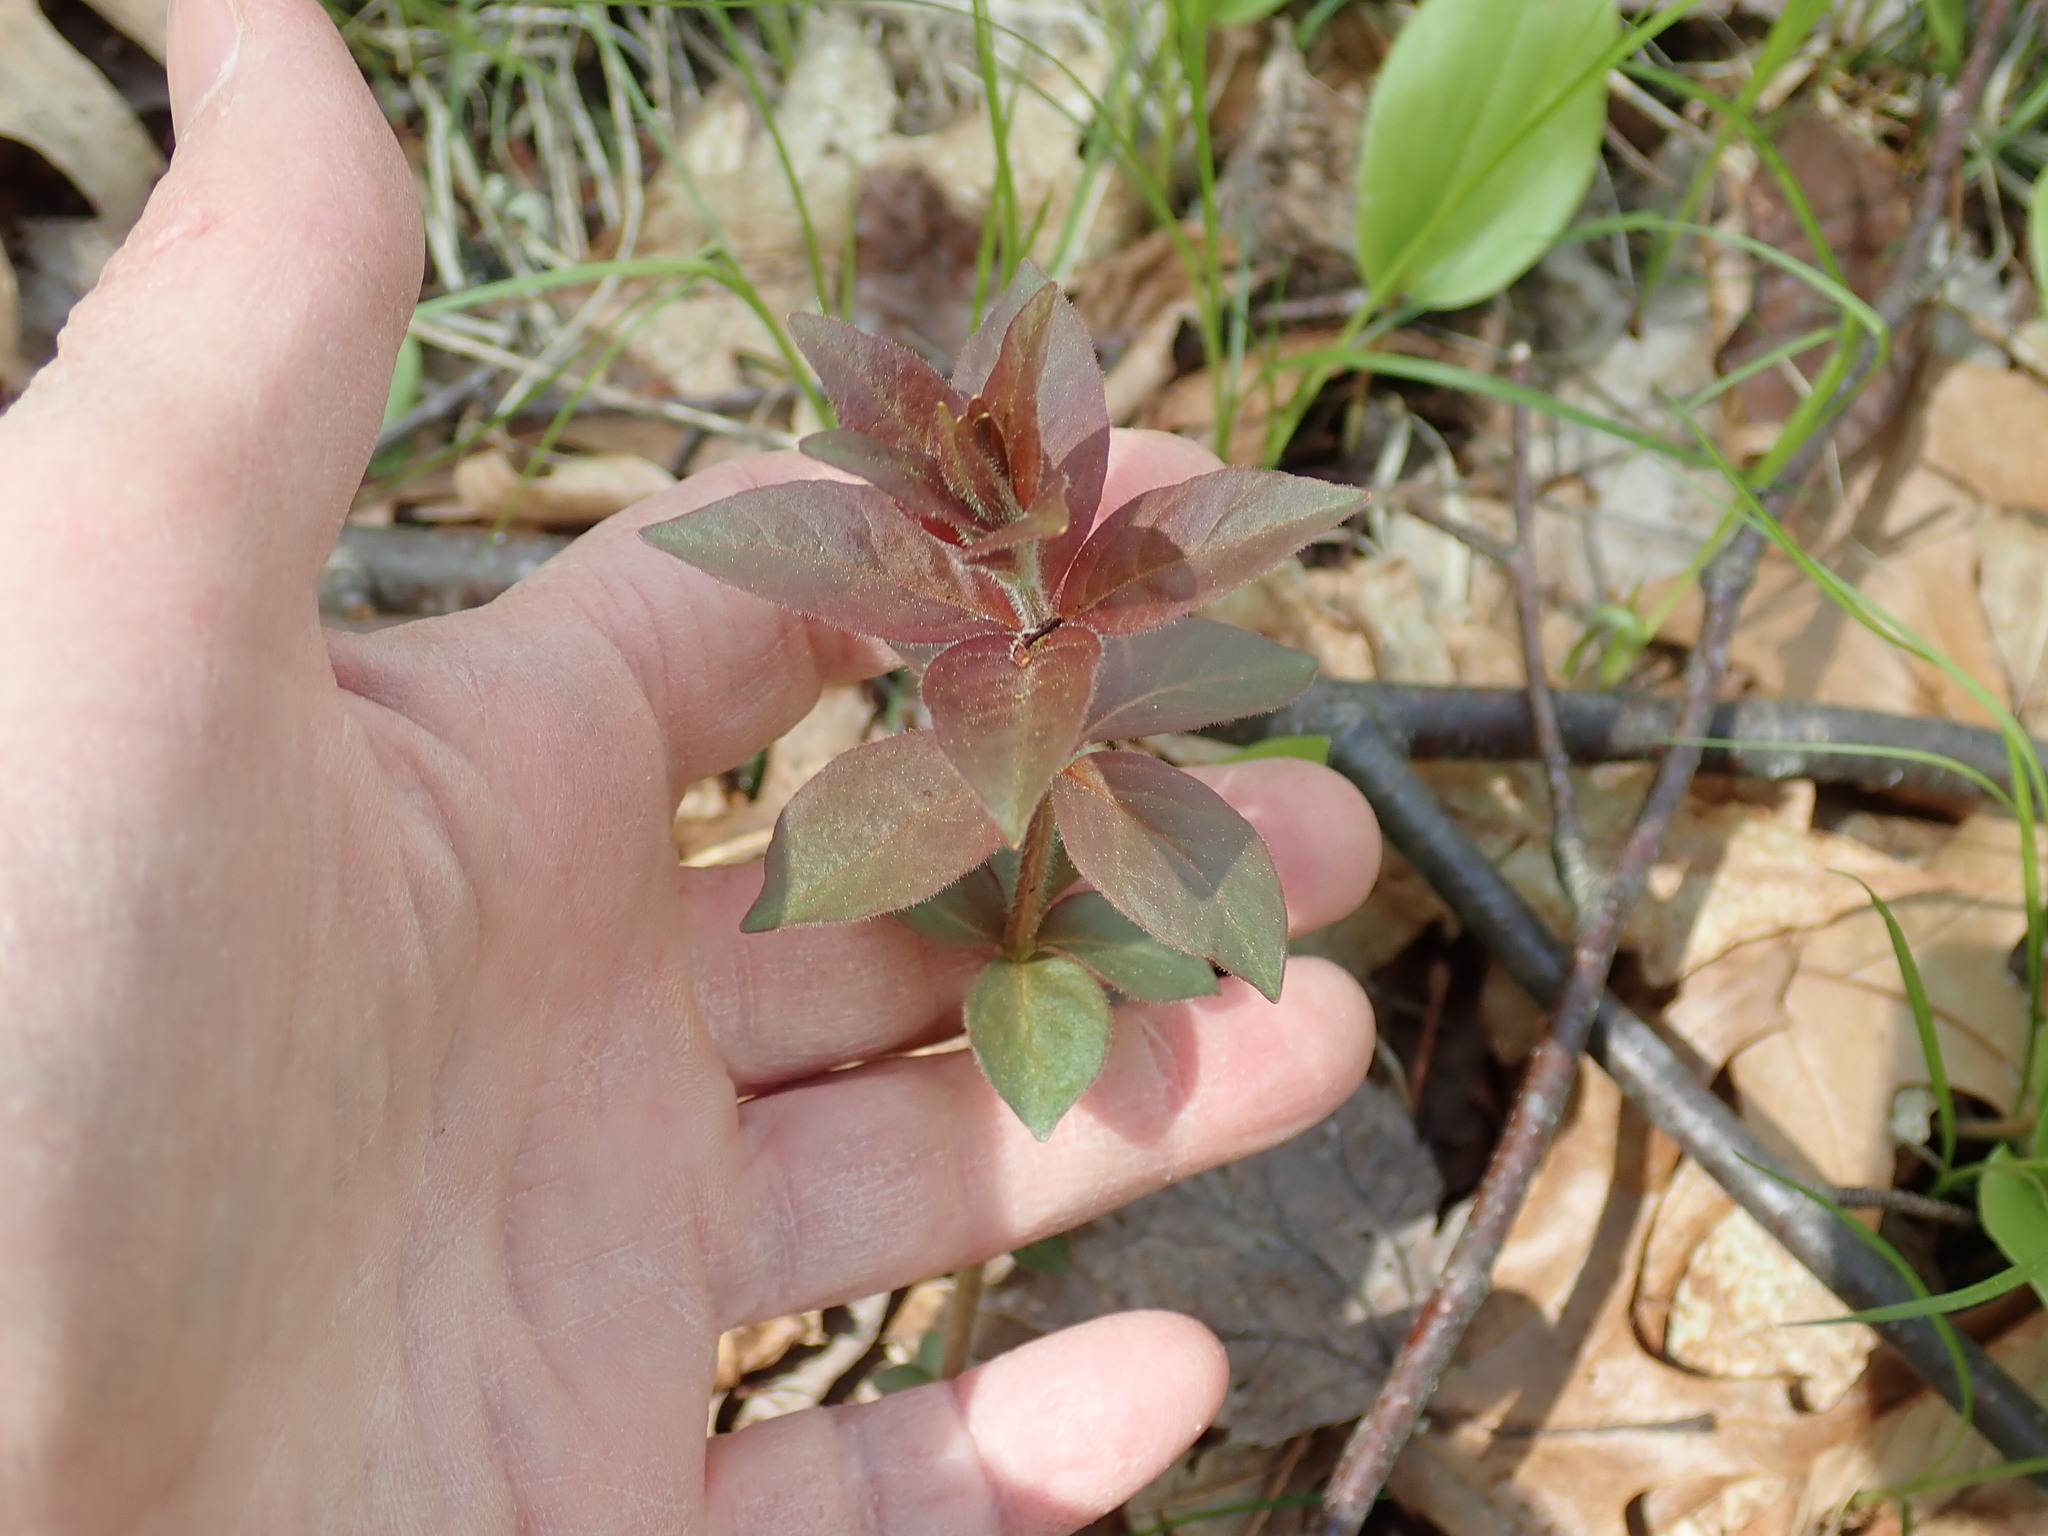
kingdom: Plantae
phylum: Tracheophyta
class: Magnoliopsida
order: Ericales
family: Primulaceae
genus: Lysimachia
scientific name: Lysimachia quadrifolia
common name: Whorled loosestrife
